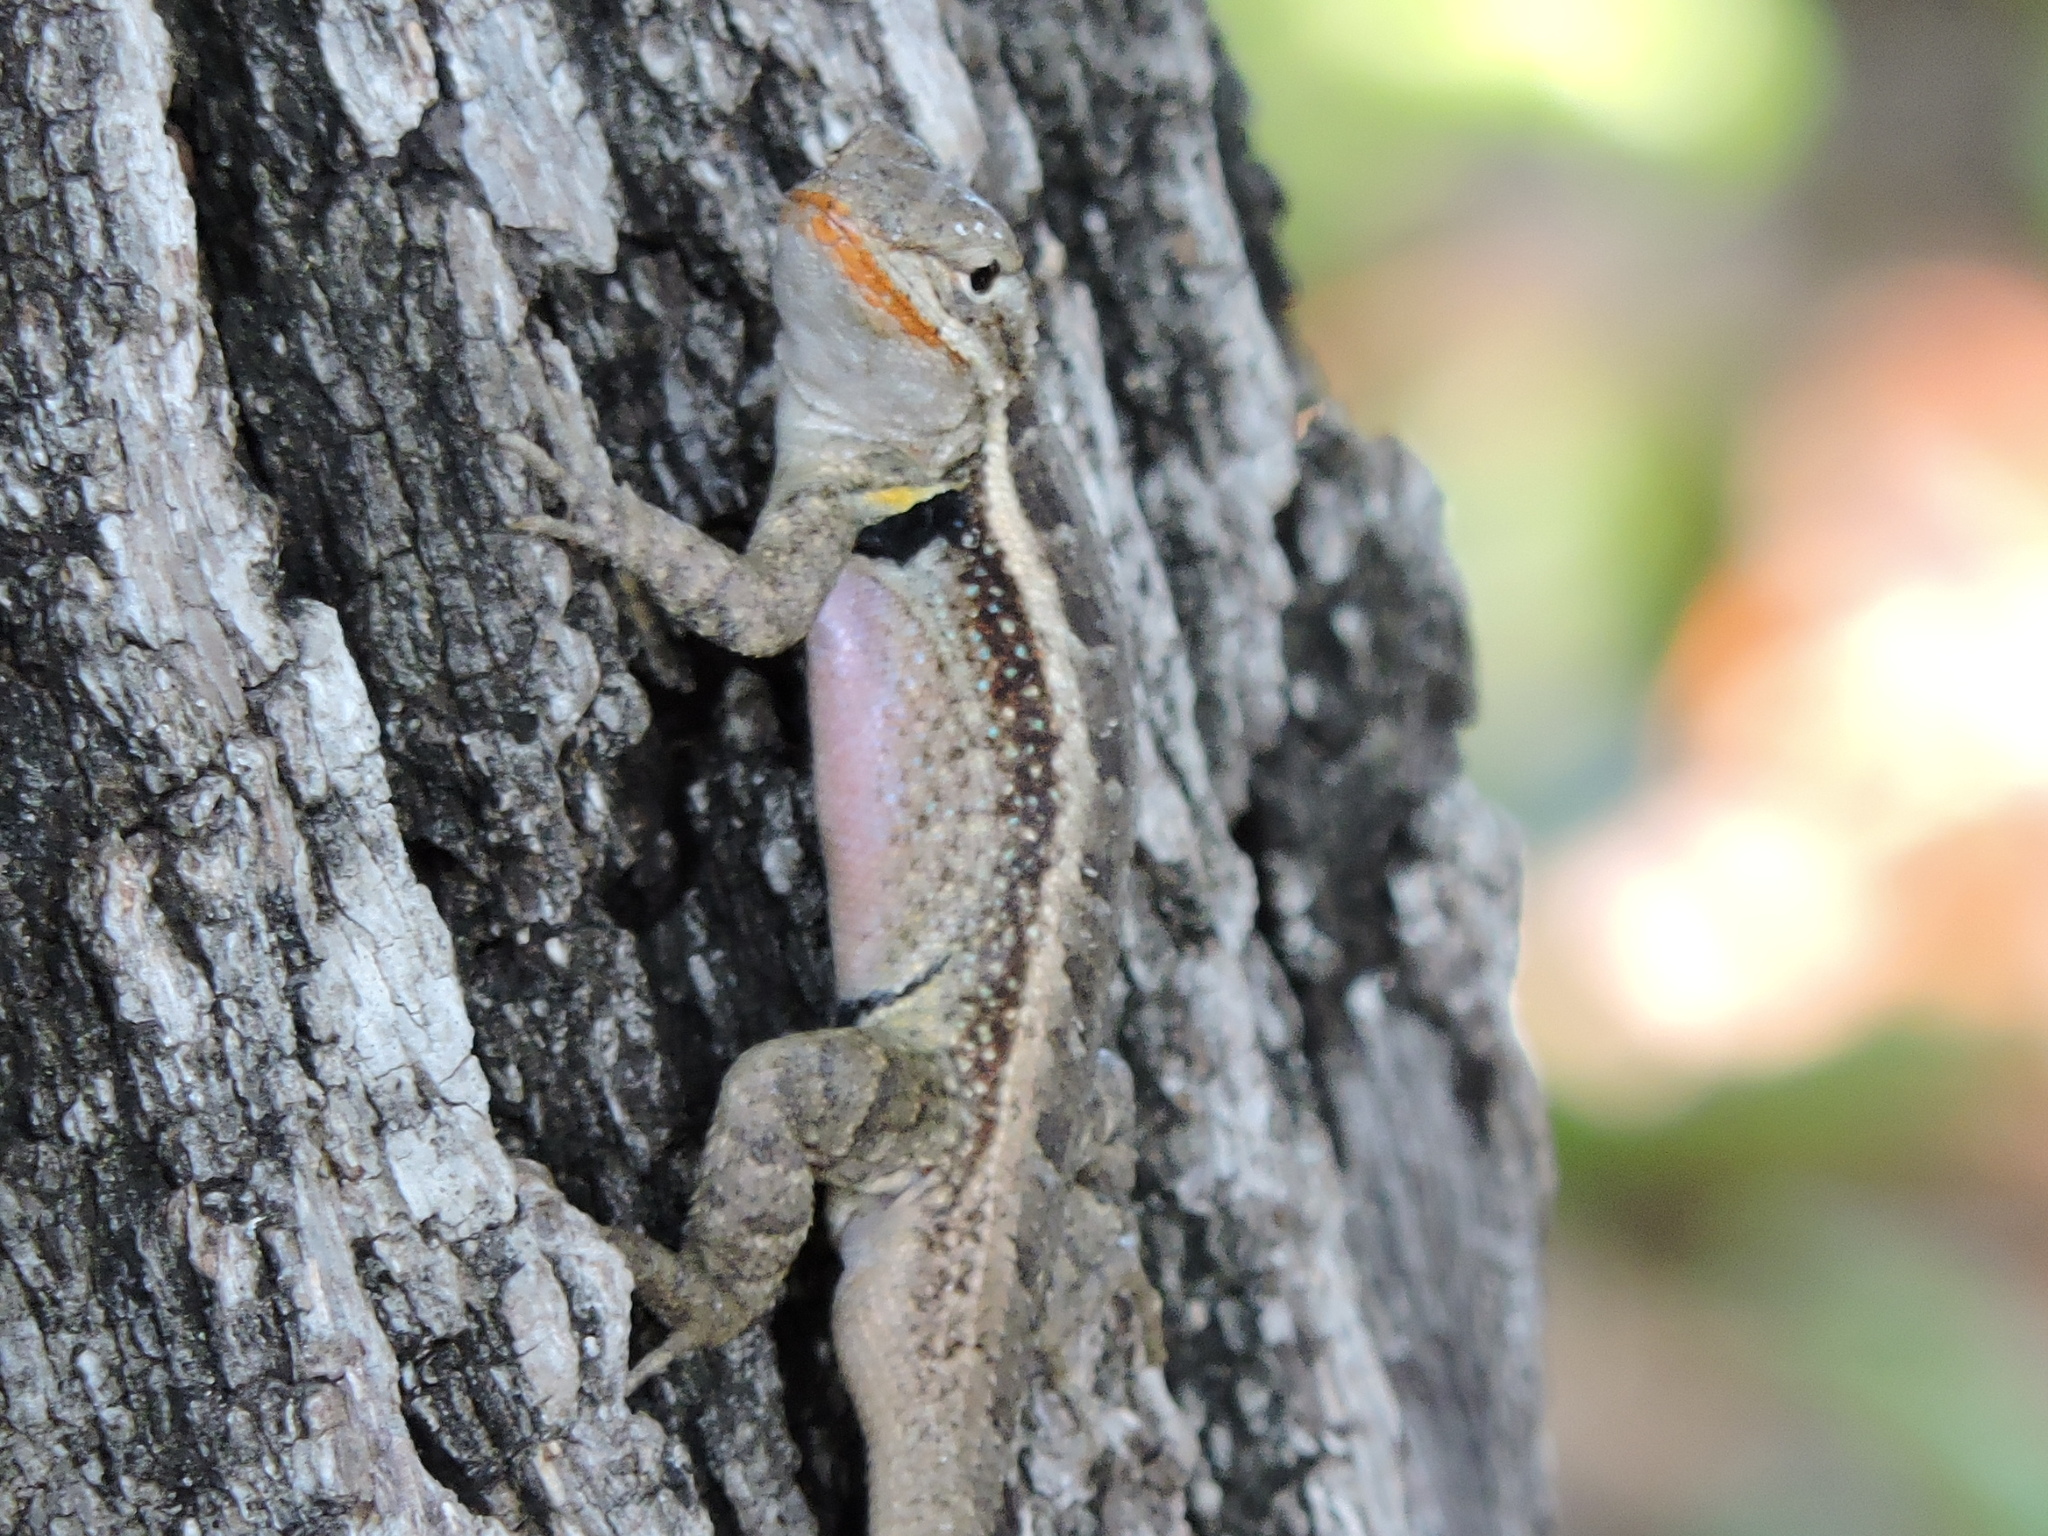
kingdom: Animalia
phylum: Chordata
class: Squamata
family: Phrynosomatidae
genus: Sceloporus
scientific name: Sceloporus variabilis
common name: Rosebelly lizard
